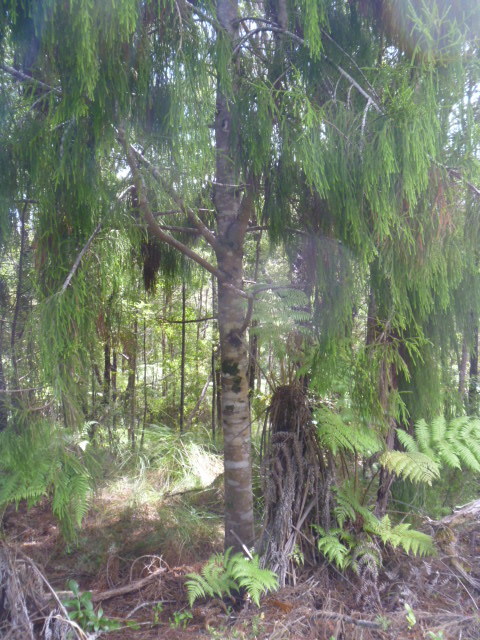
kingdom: Plantae
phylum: Tracheophyta
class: Pinopsida
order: Pinales
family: Podocarpaceae
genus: Dacrydium
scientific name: Dacrydium cupressinum
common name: Red pine
